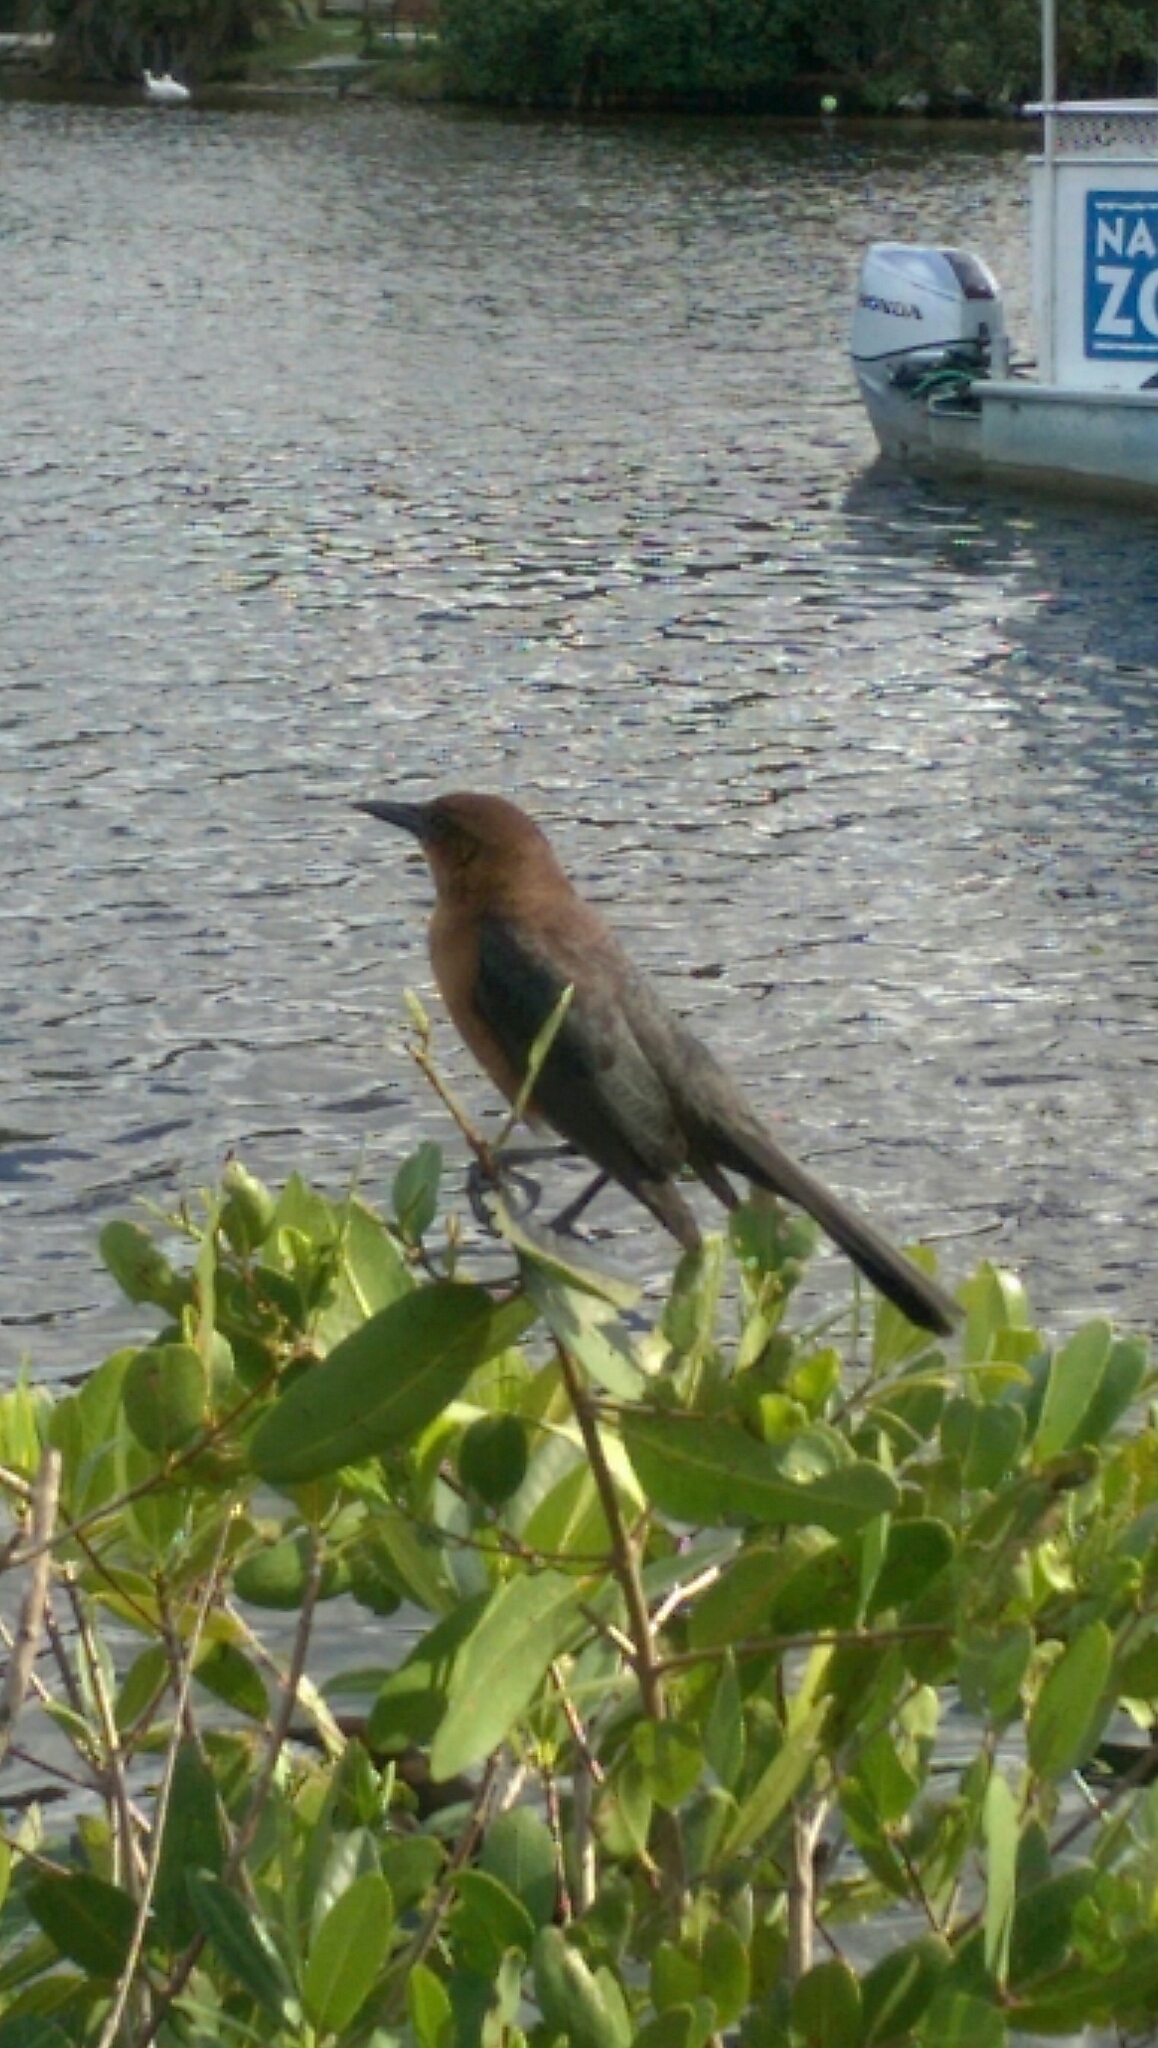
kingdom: Animalia
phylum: Chordata
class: Aves
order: Passeriformes
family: Icteridae
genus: Quiscalus
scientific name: Quiscalus major
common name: Boat-tailed grackle
